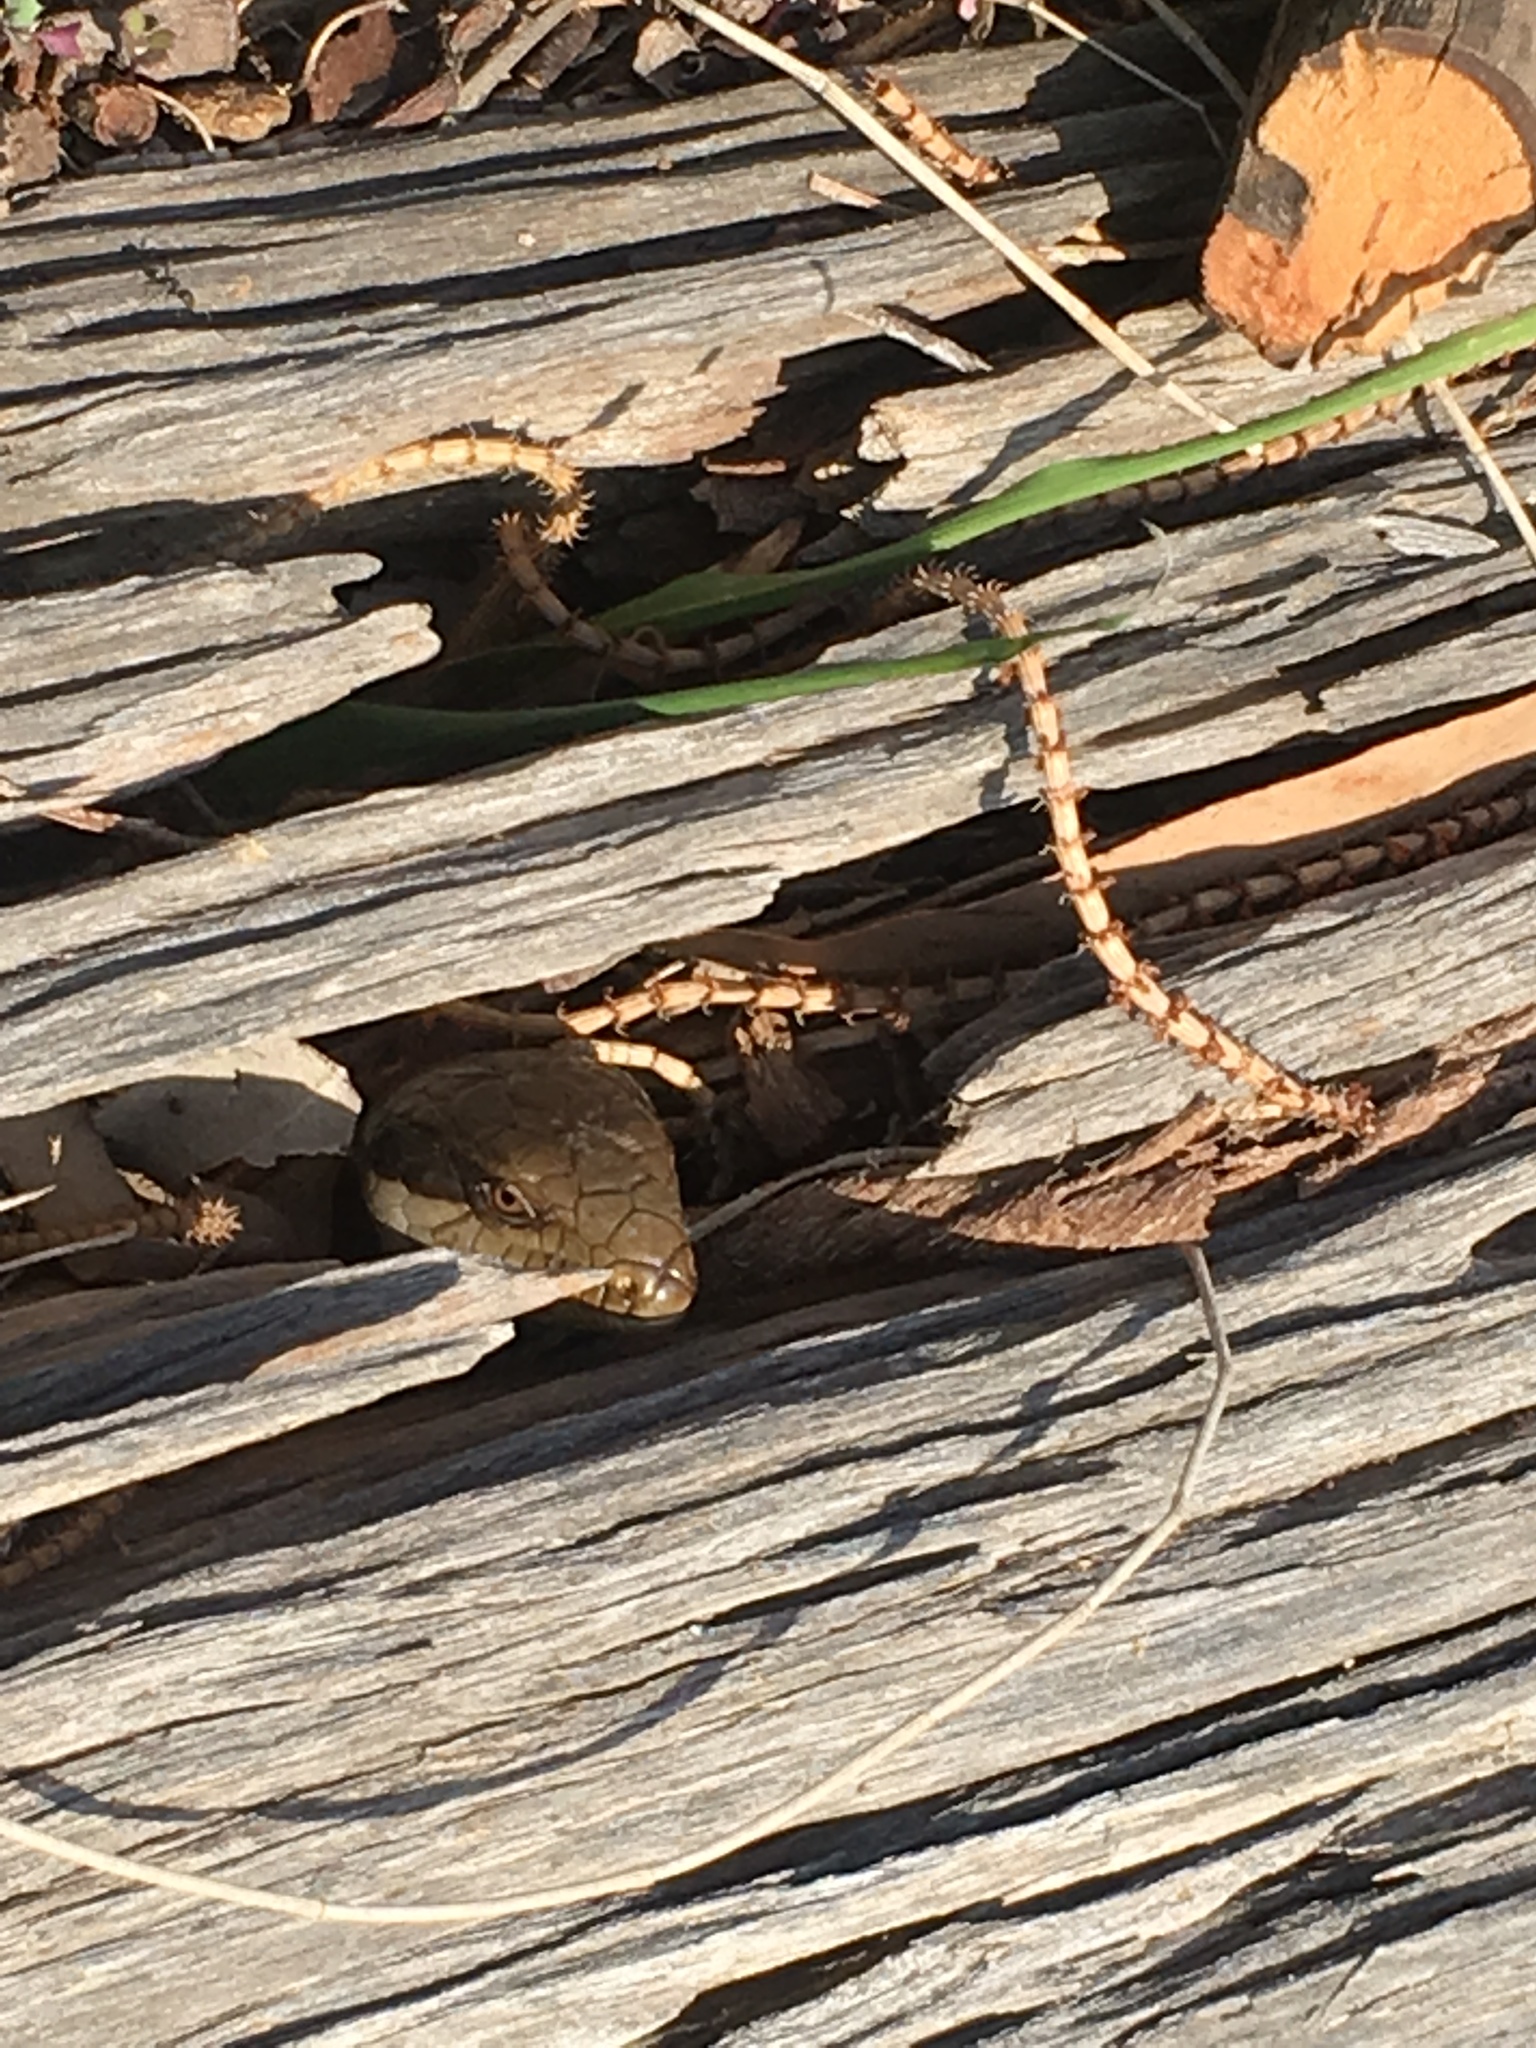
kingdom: Animalia
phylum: Chordata
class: Squamata
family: Scincidae
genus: Tiliqua
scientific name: Tiliqua scincoides
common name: Common bluetongue
